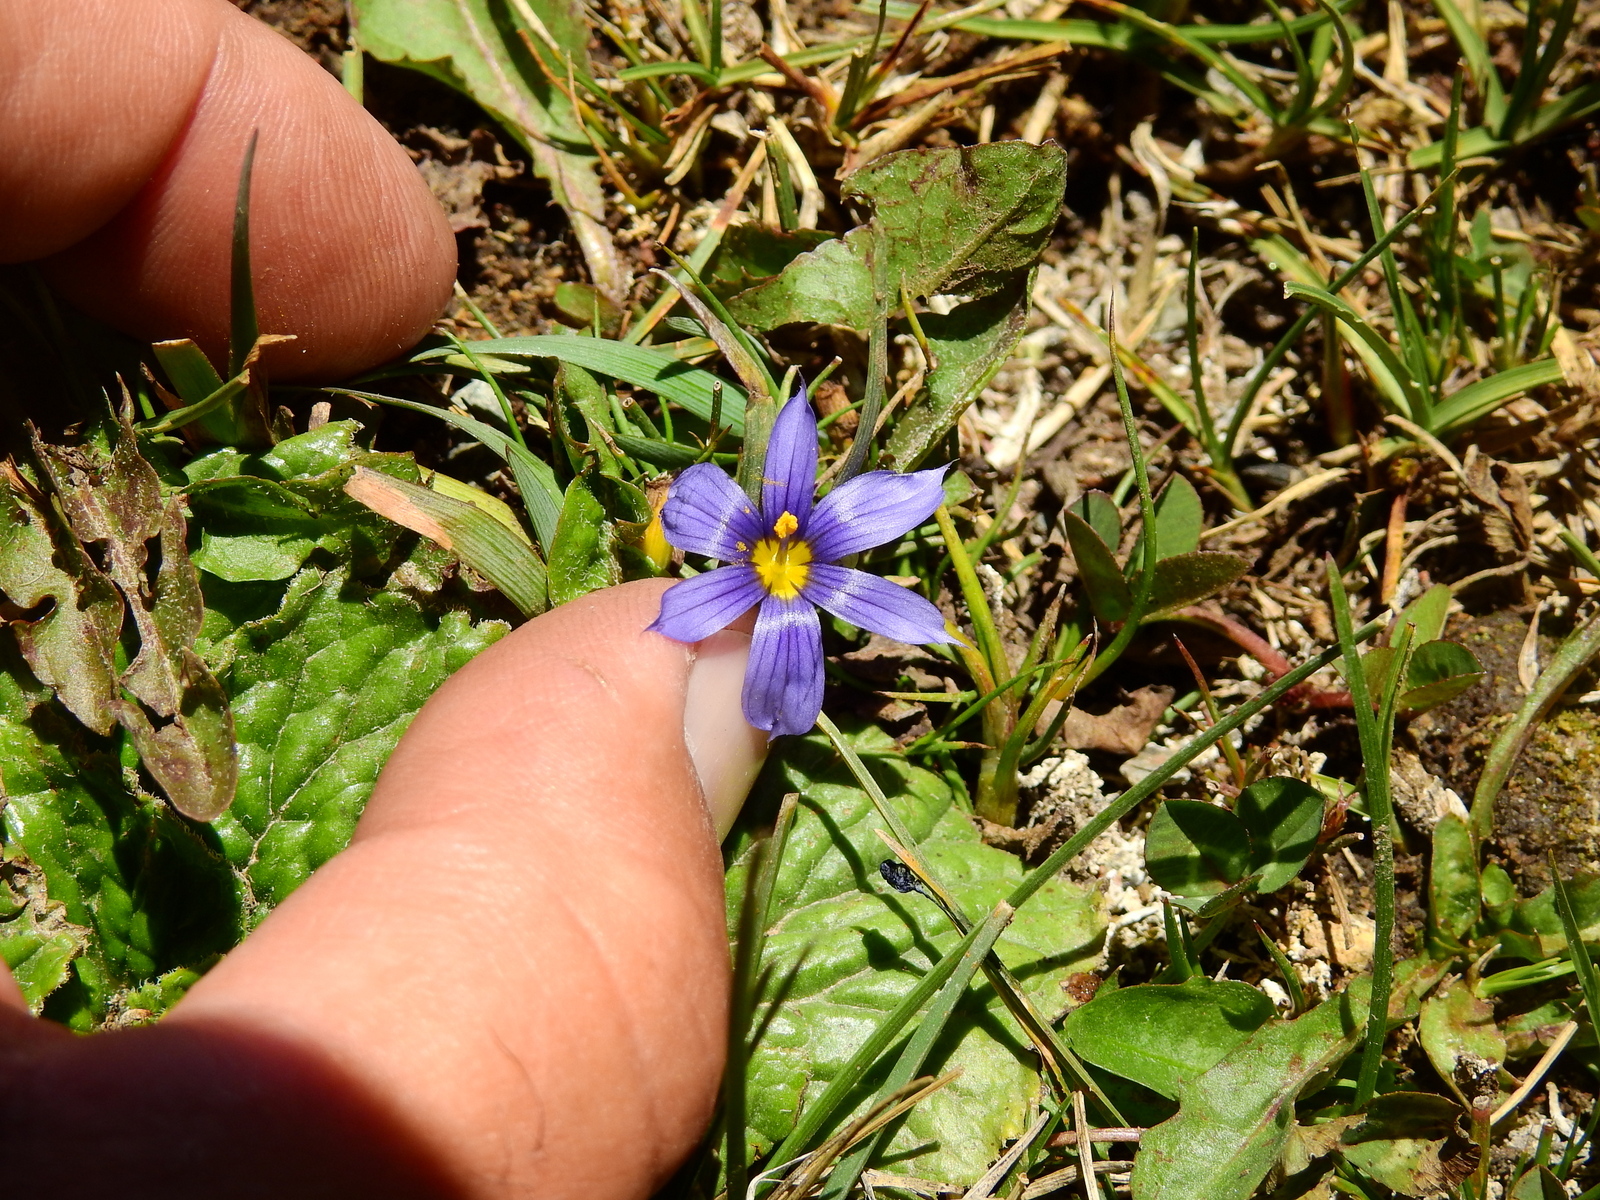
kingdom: Plantae
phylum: Tracheophyta
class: Liliopsida
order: Asparagales
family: Iridaceae
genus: Sisyrinchium
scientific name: Sisyrinchium chilense
